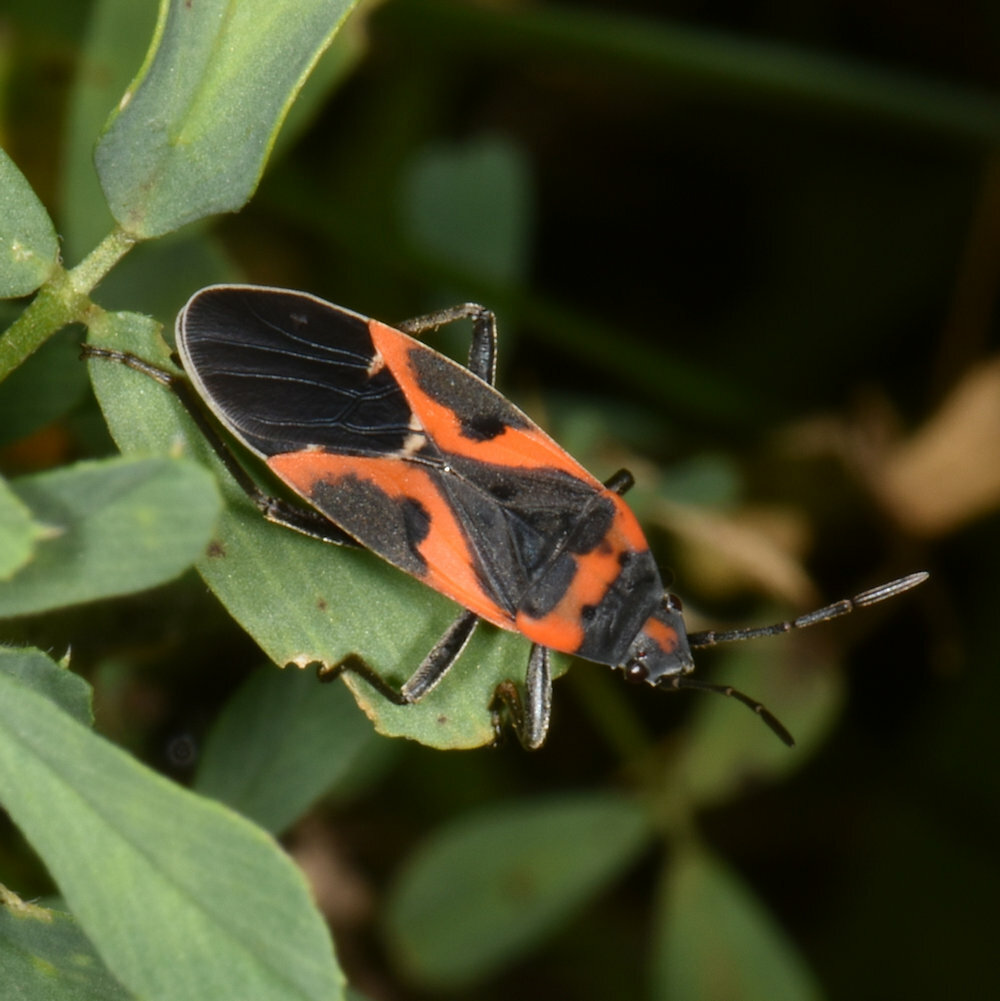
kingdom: Animalia
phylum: Arthropoda
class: Insecta
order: Hemiptera
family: Lygaeidae
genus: Lygaeus
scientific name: Lygaeus kalmii
